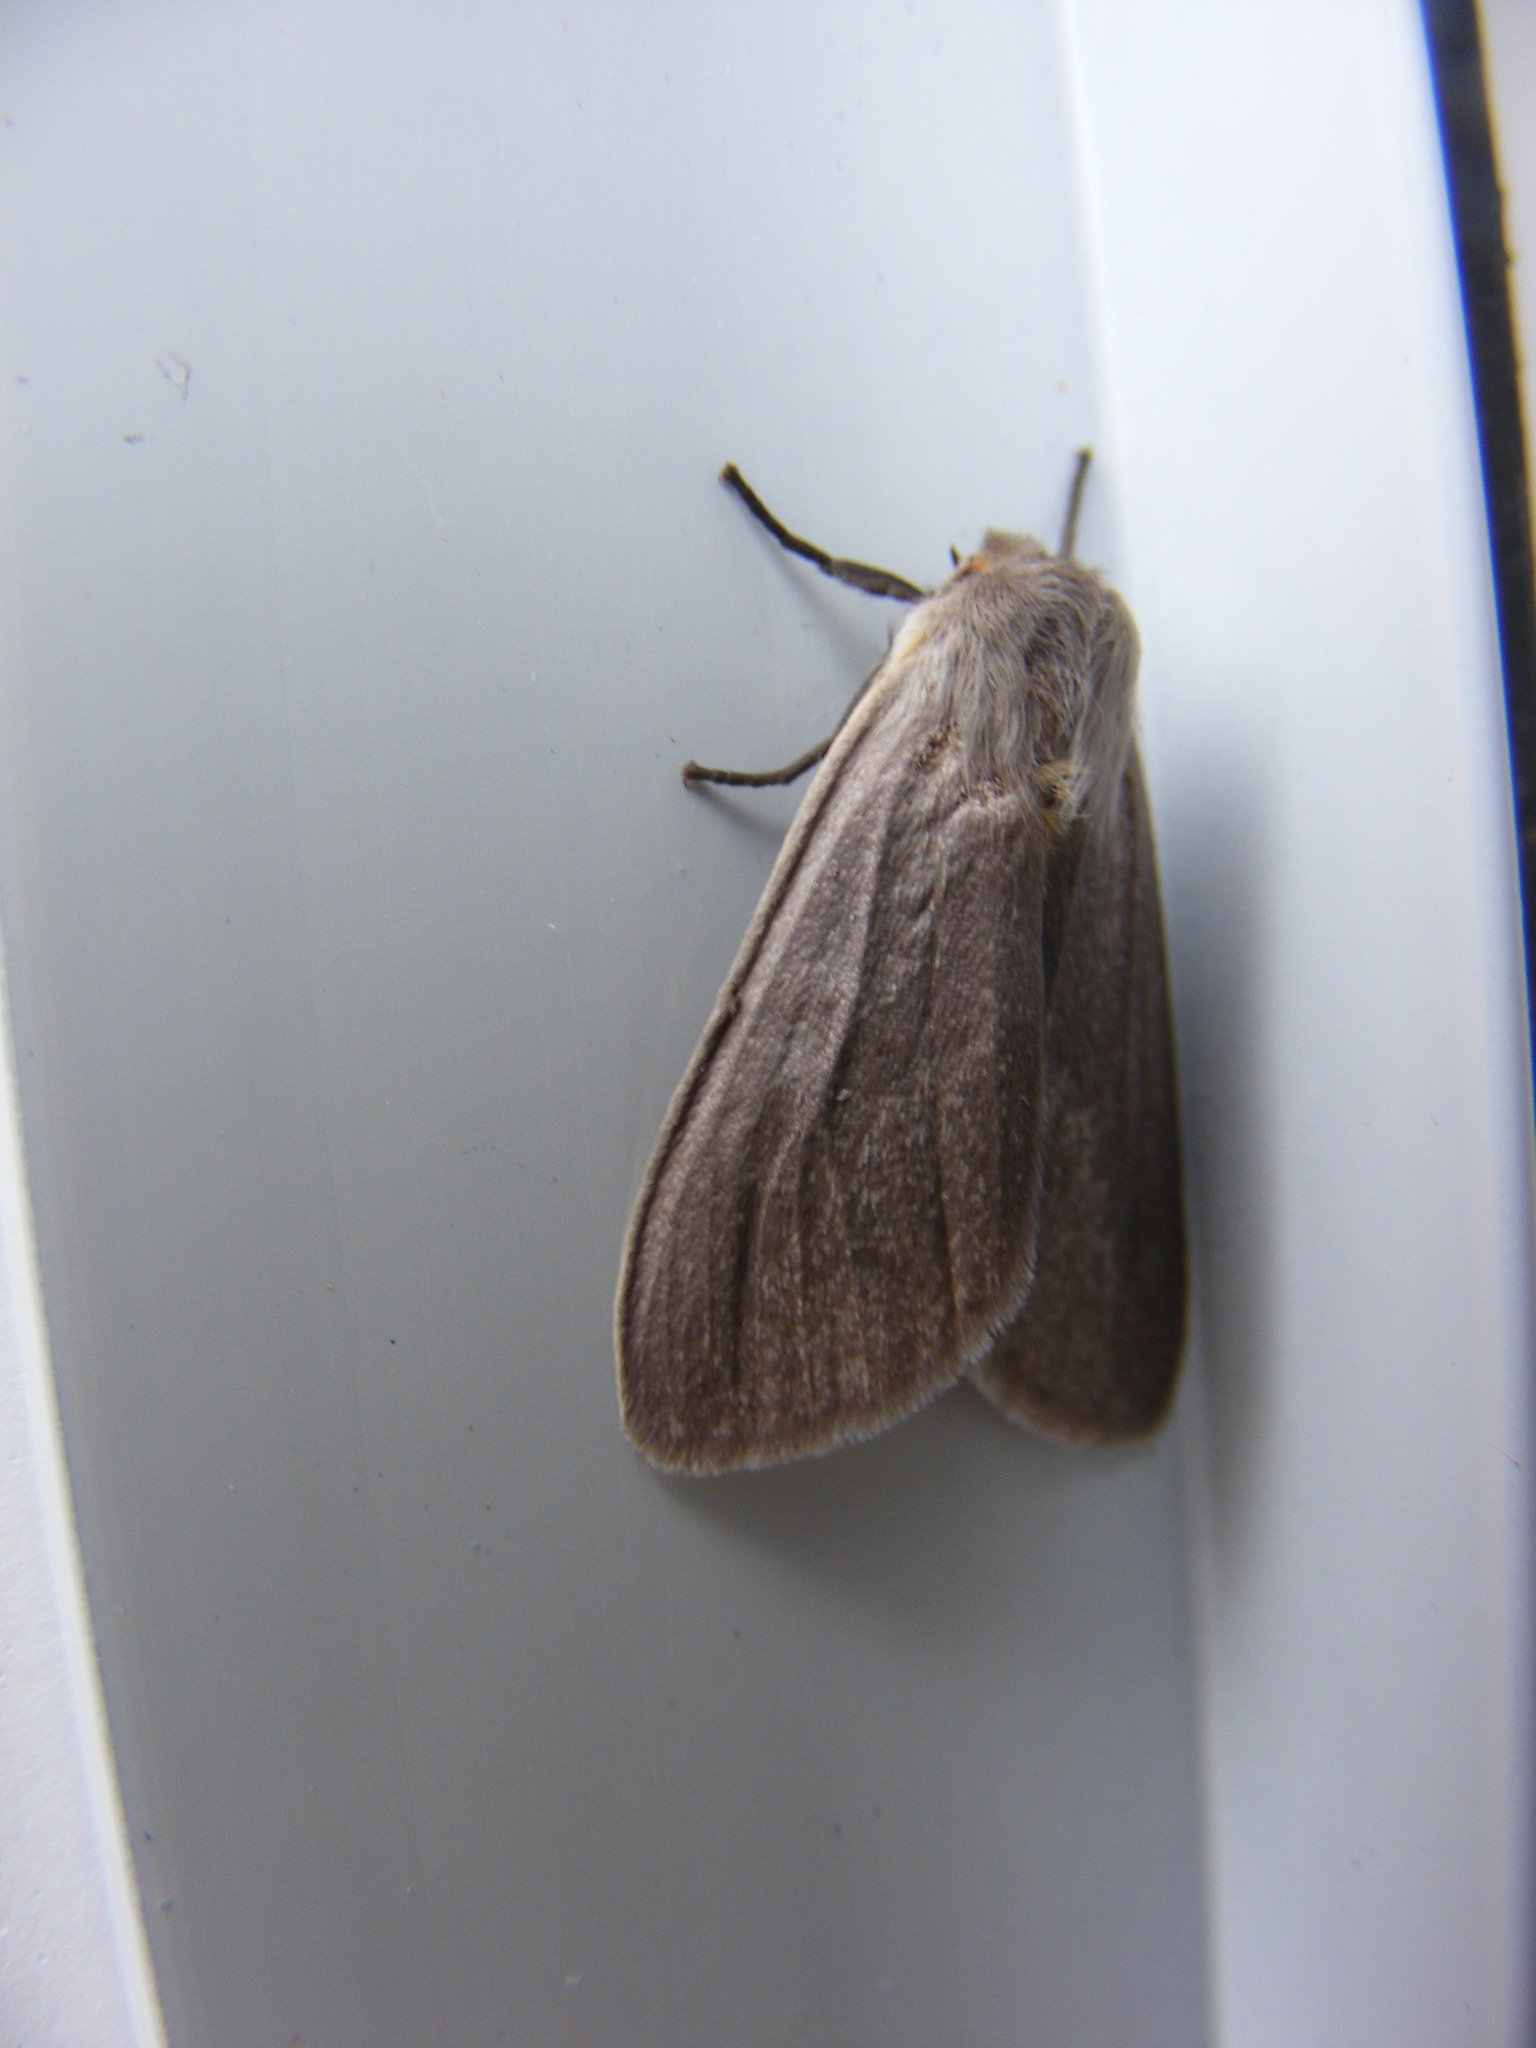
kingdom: Animalia
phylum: Arthropoda
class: Insecta
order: Lepidoptera
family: Erebidae
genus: Euchaetes
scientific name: Euchaetes egle
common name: Milkweed tussock moth
